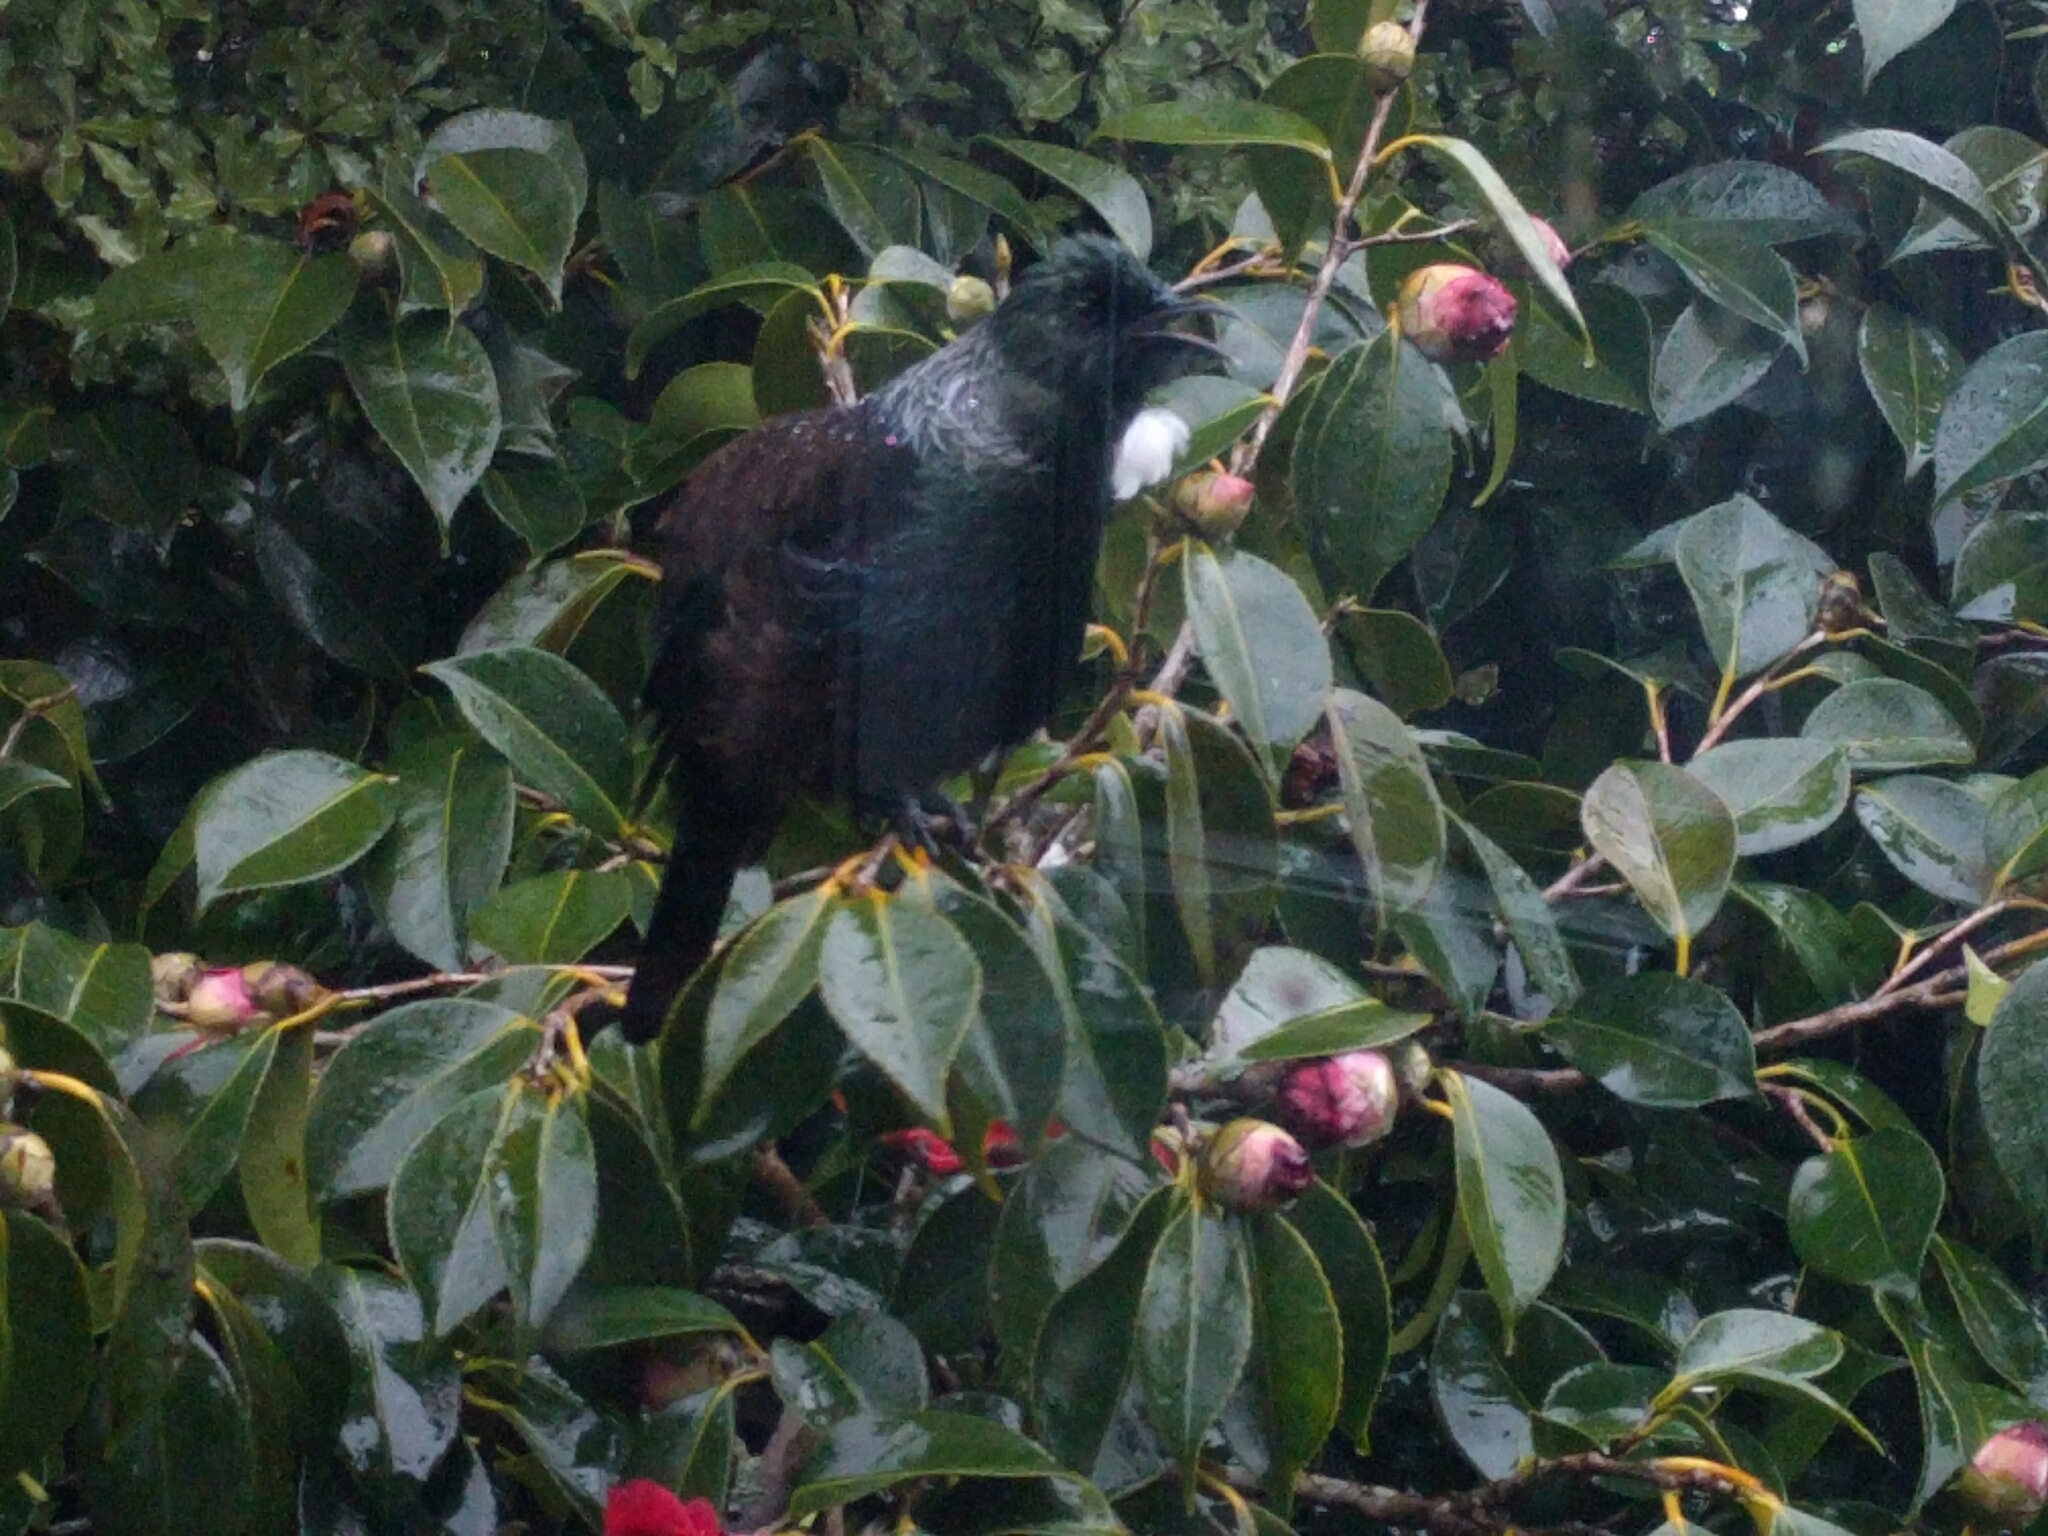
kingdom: Animalia
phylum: Chordata
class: Aves
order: Passeriformes
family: Meliphagidae
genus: Prosthemadera
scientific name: Prosthemadera novaeseelandiae
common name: Tui
